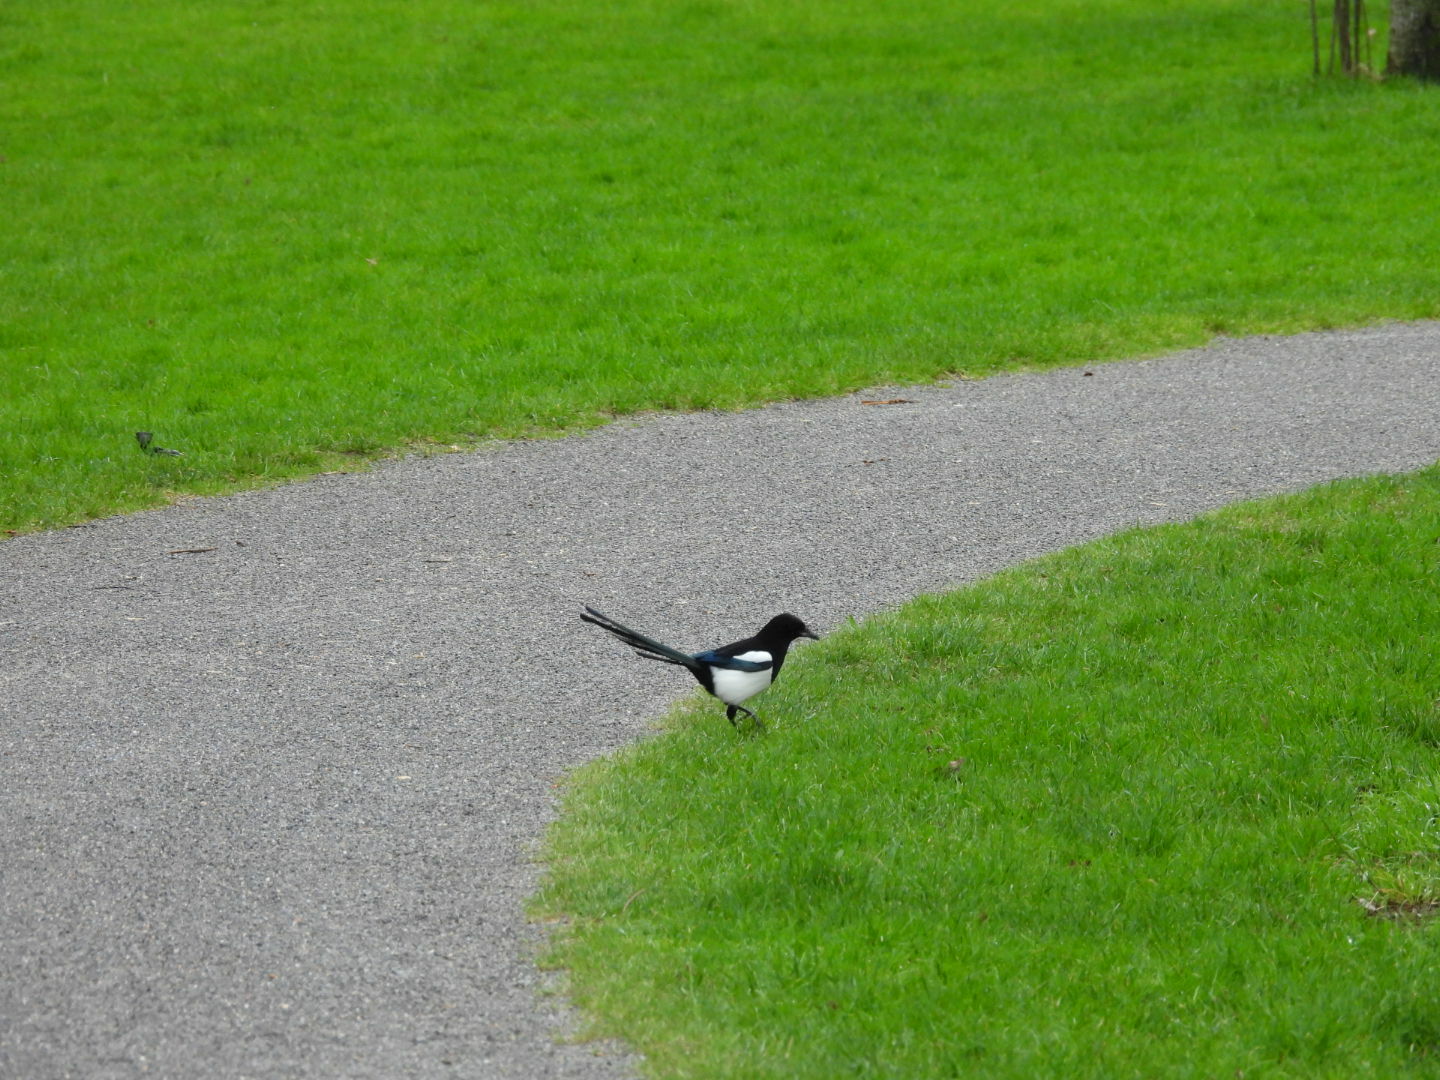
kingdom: Animalia
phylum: Chordata
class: Aves
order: Passeriformes
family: Corvidae
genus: Pica
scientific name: Pica pica
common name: Eurasian magpie
